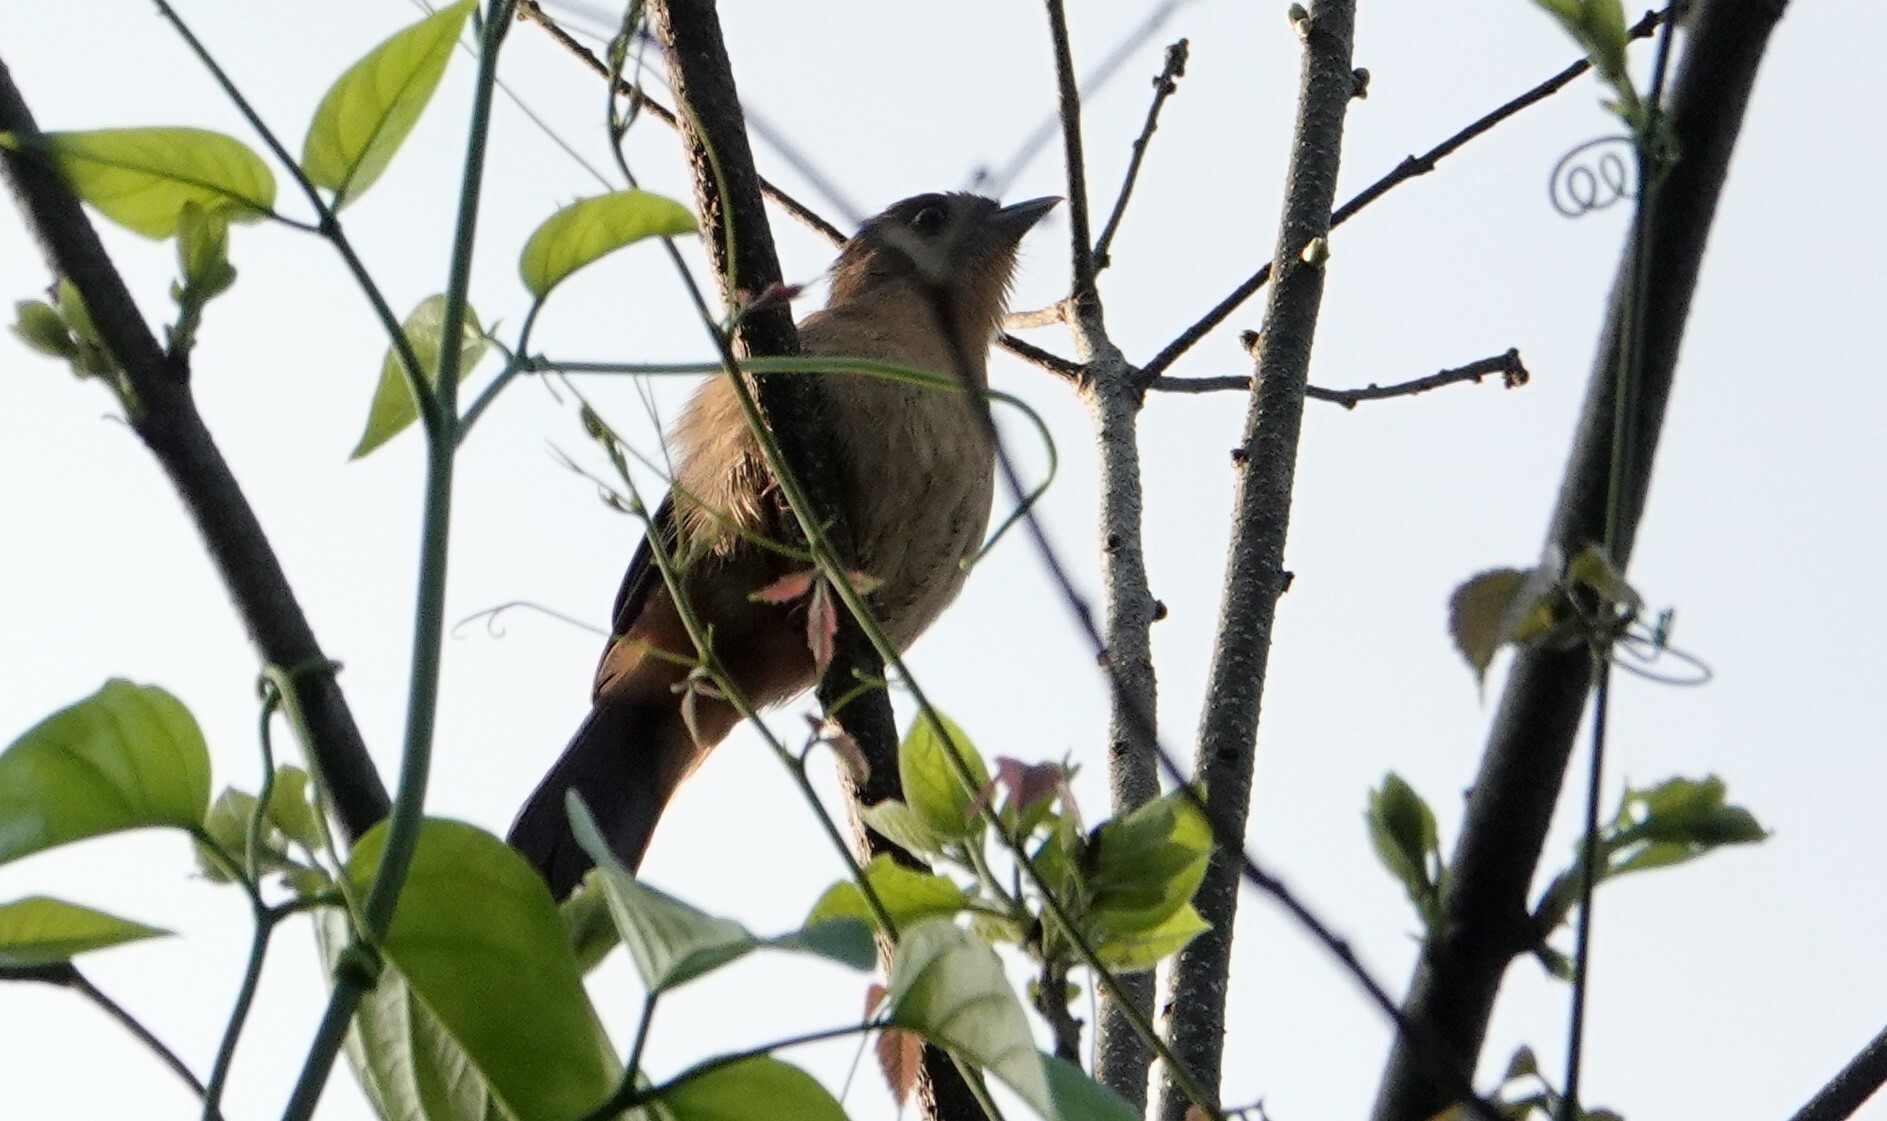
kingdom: Animalia
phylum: Chordata
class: Aves
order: Passeriformes
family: Cotingidae
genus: Pachyramphus
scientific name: Pachyramphus validus
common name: Crested becard
